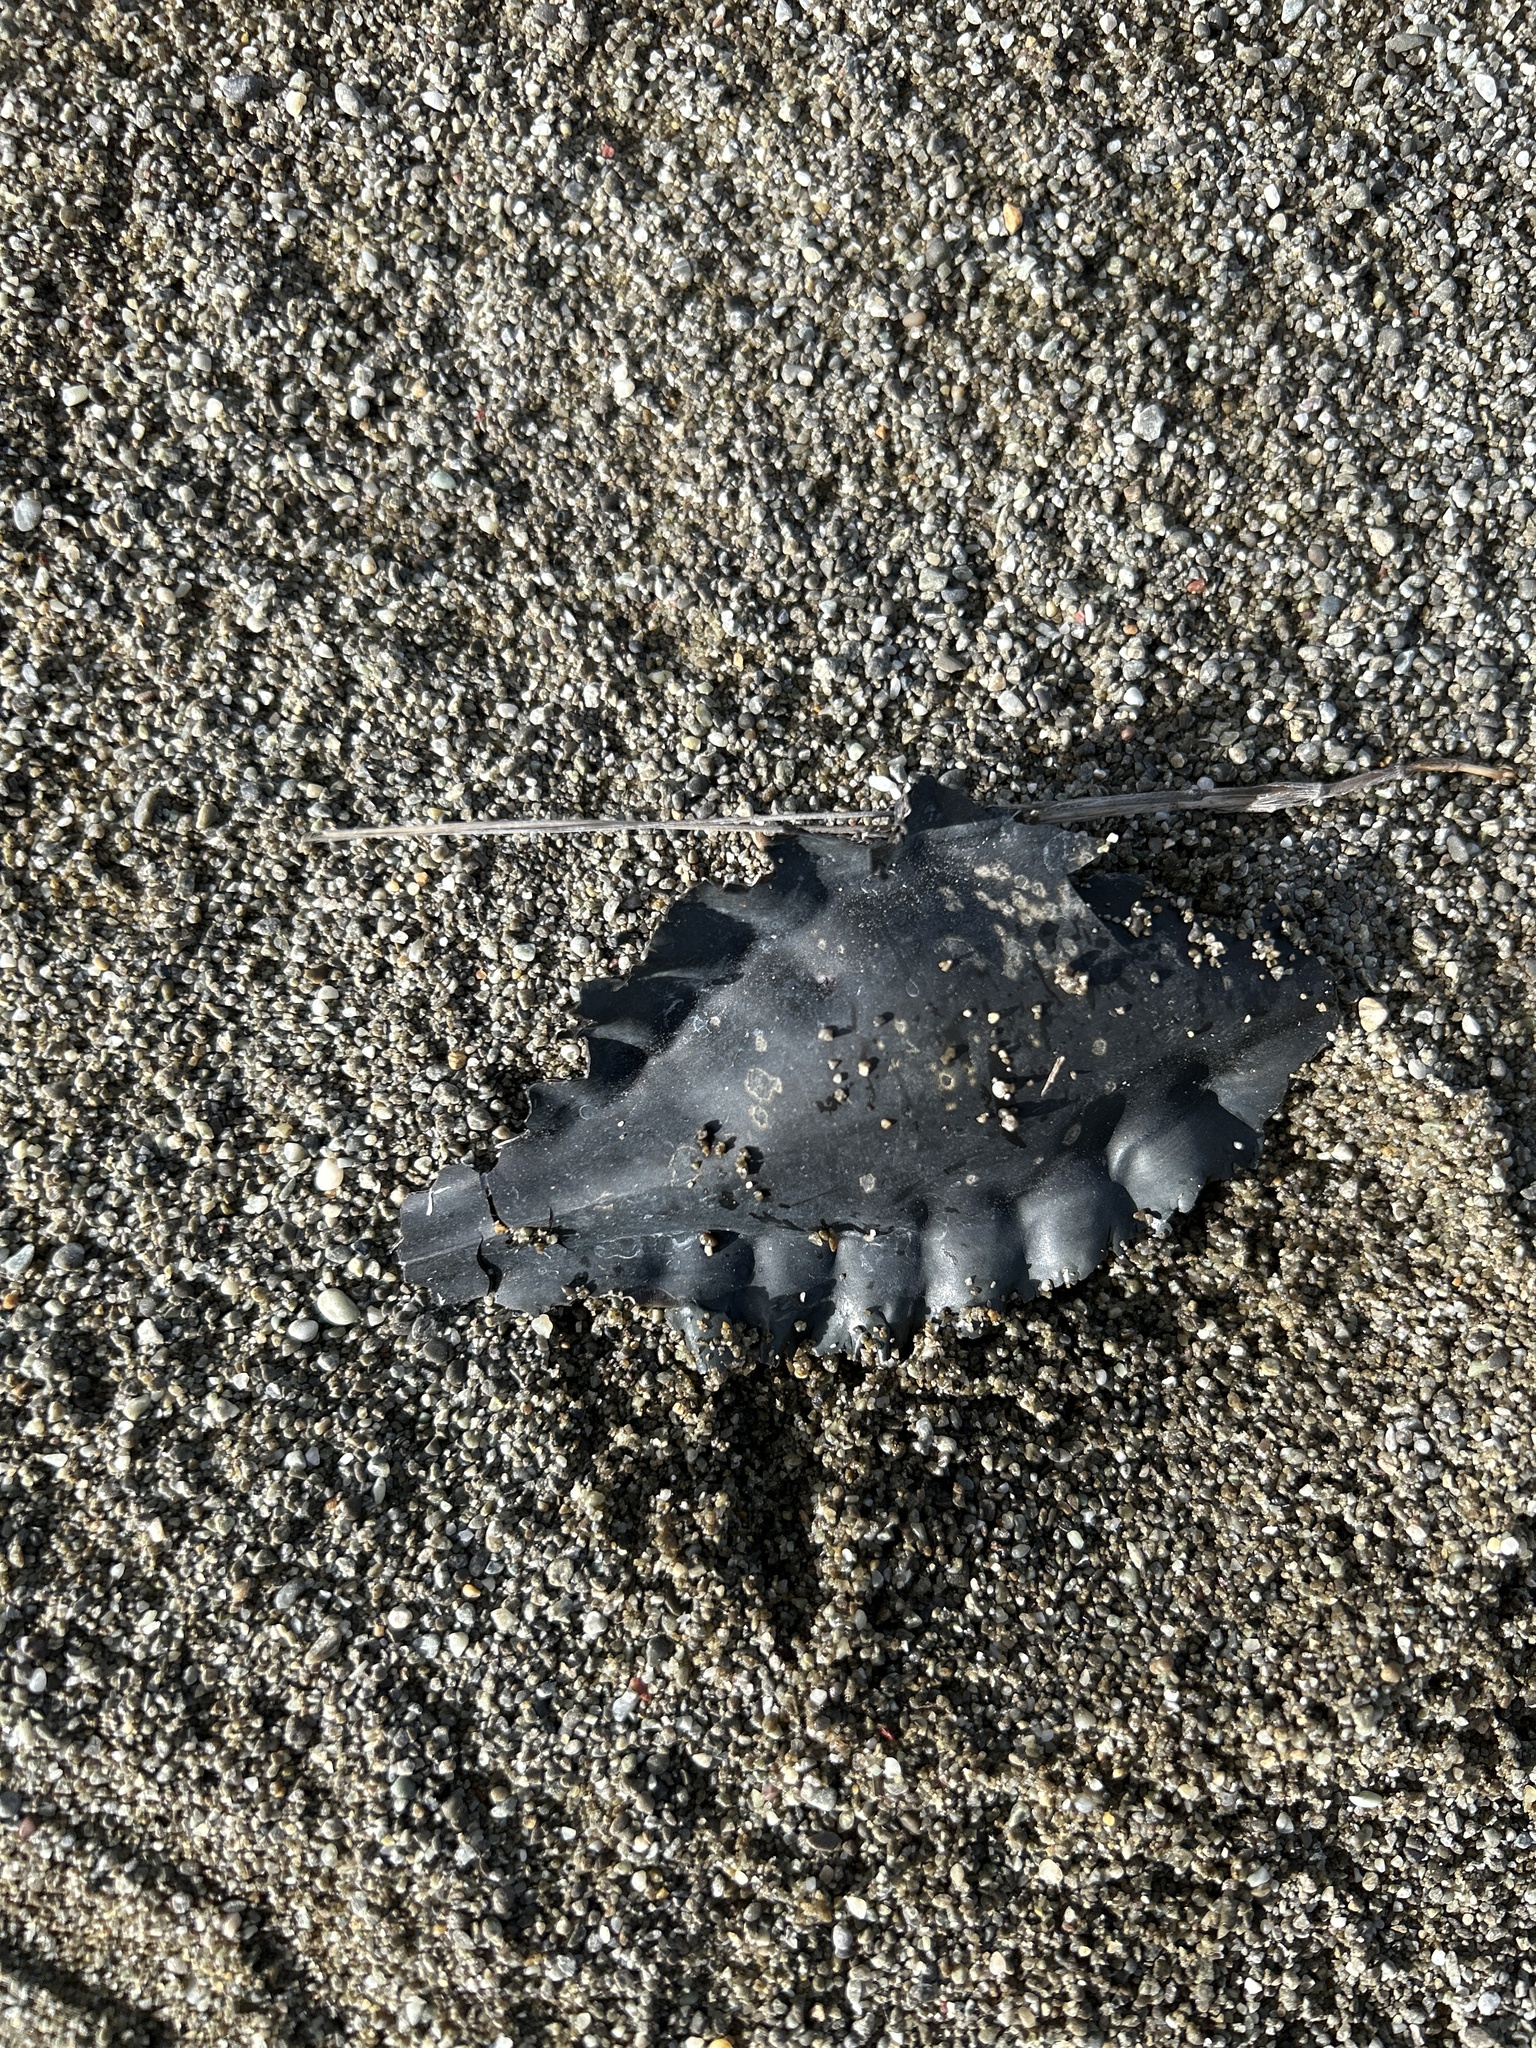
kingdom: Animalia
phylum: Chordata
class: Holocephali
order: Chimaeriformes
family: Callorhinchidae
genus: Callorhinchus
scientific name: Callorhinchus milii
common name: Elephant fish
